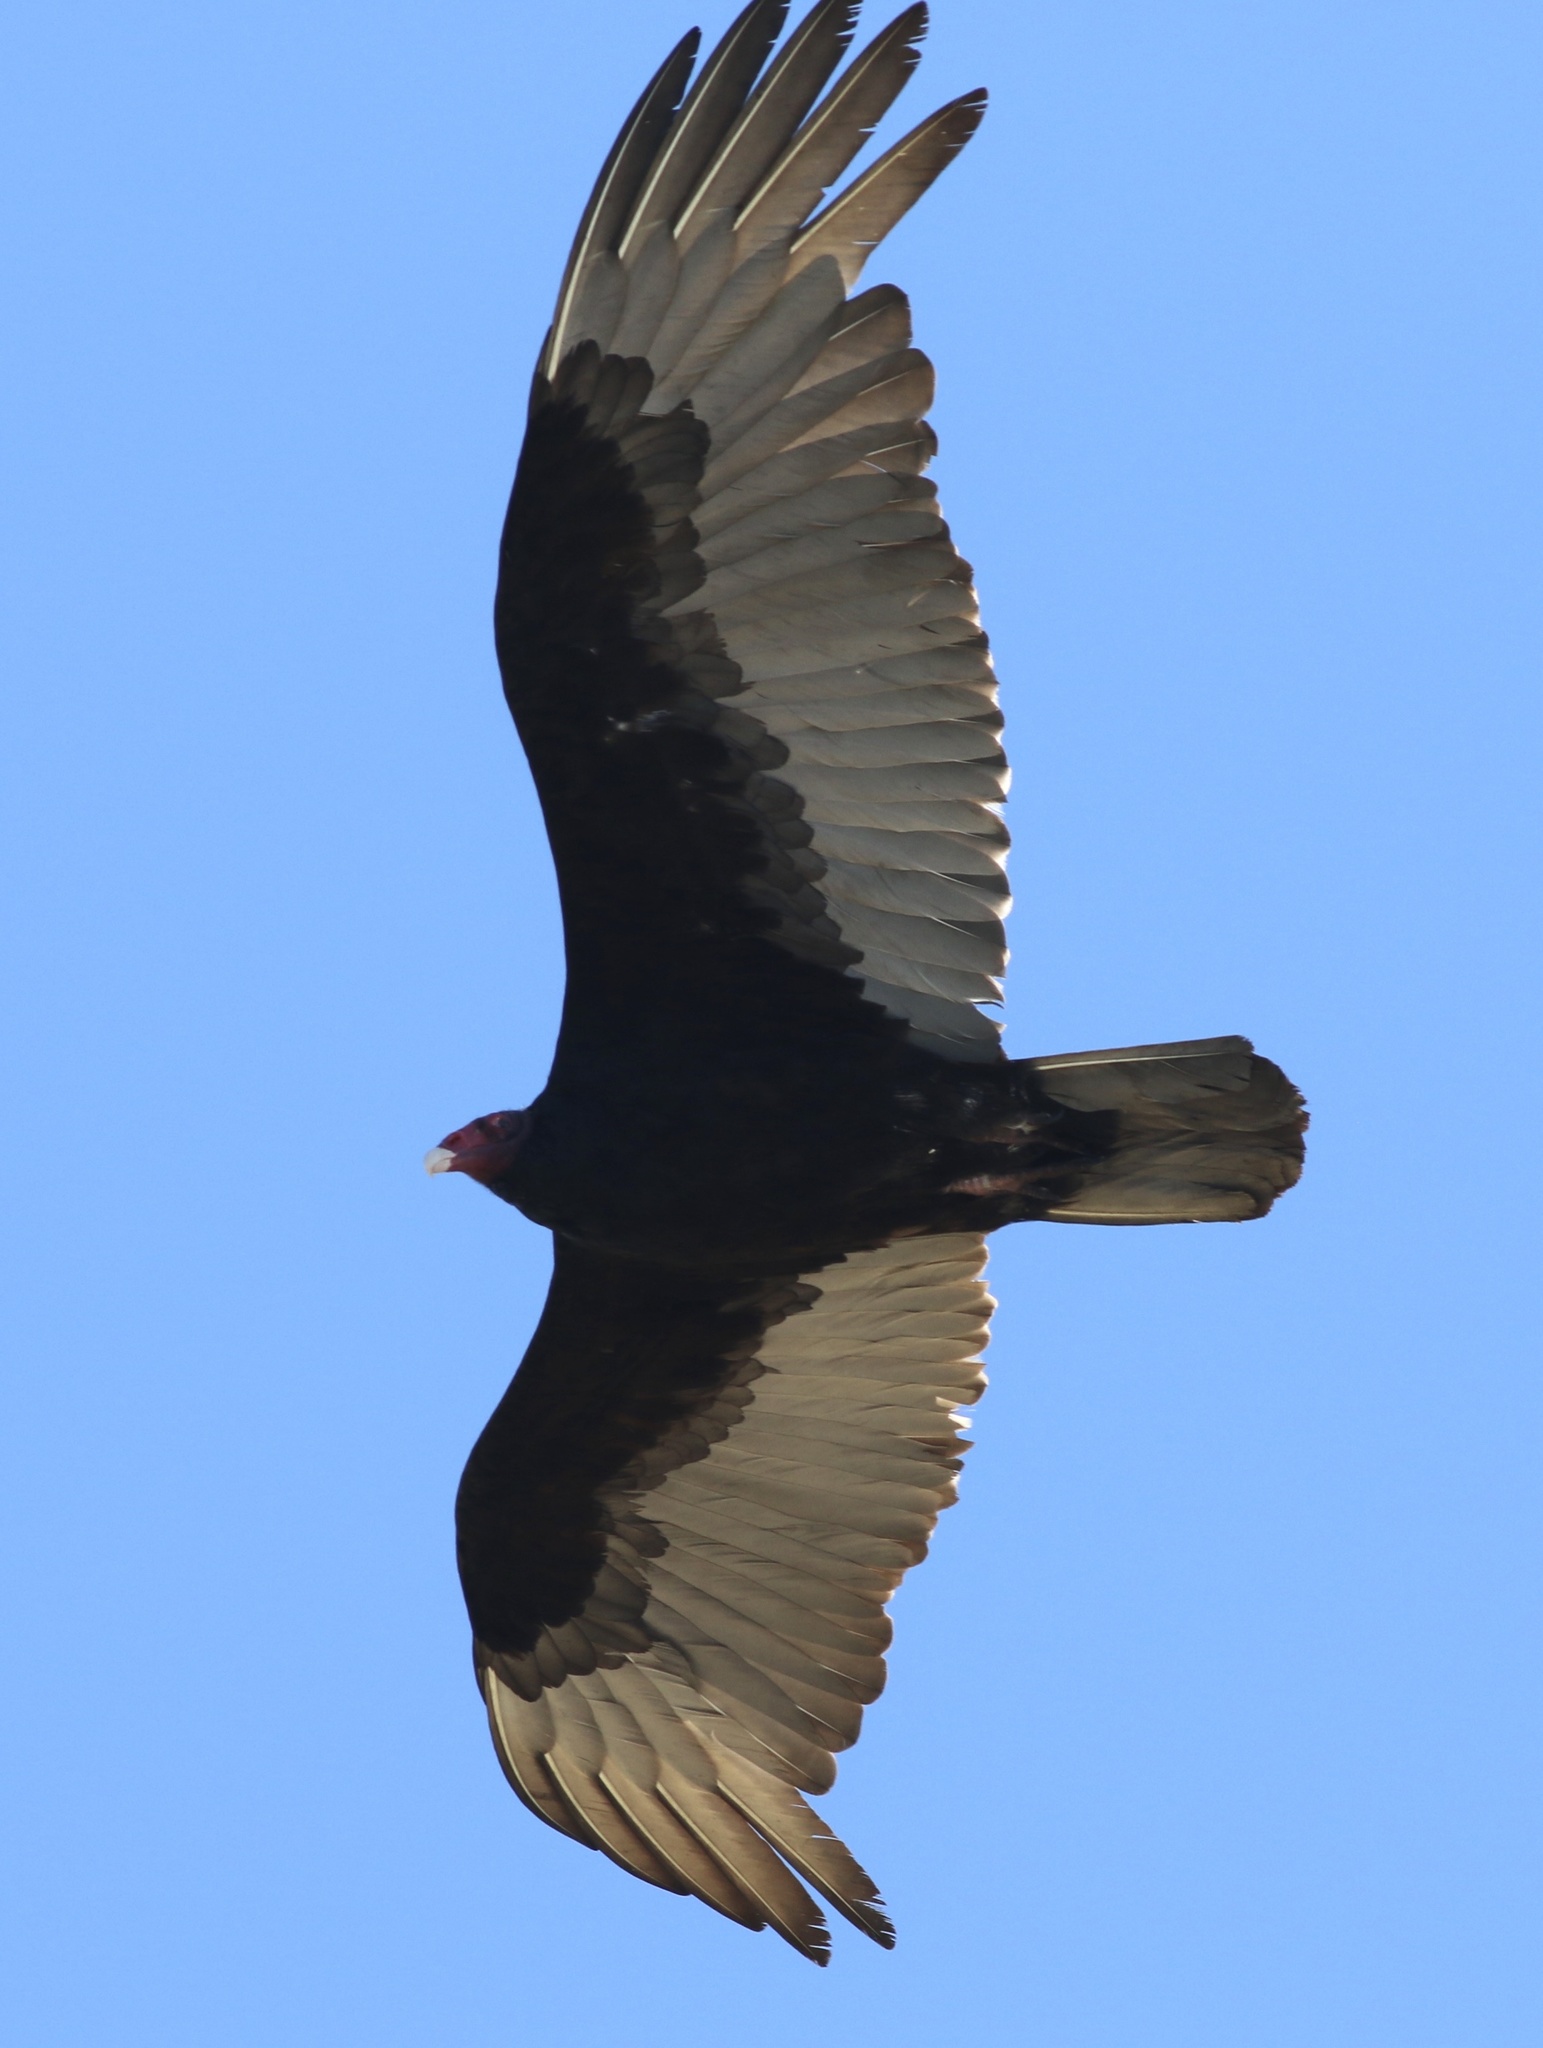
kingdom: Animalia
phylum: Chordata
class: Aves
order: Accipitriformes
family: Cathartidae
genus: Cathartes
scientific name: Cathartes aura
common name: Turkey vulture
